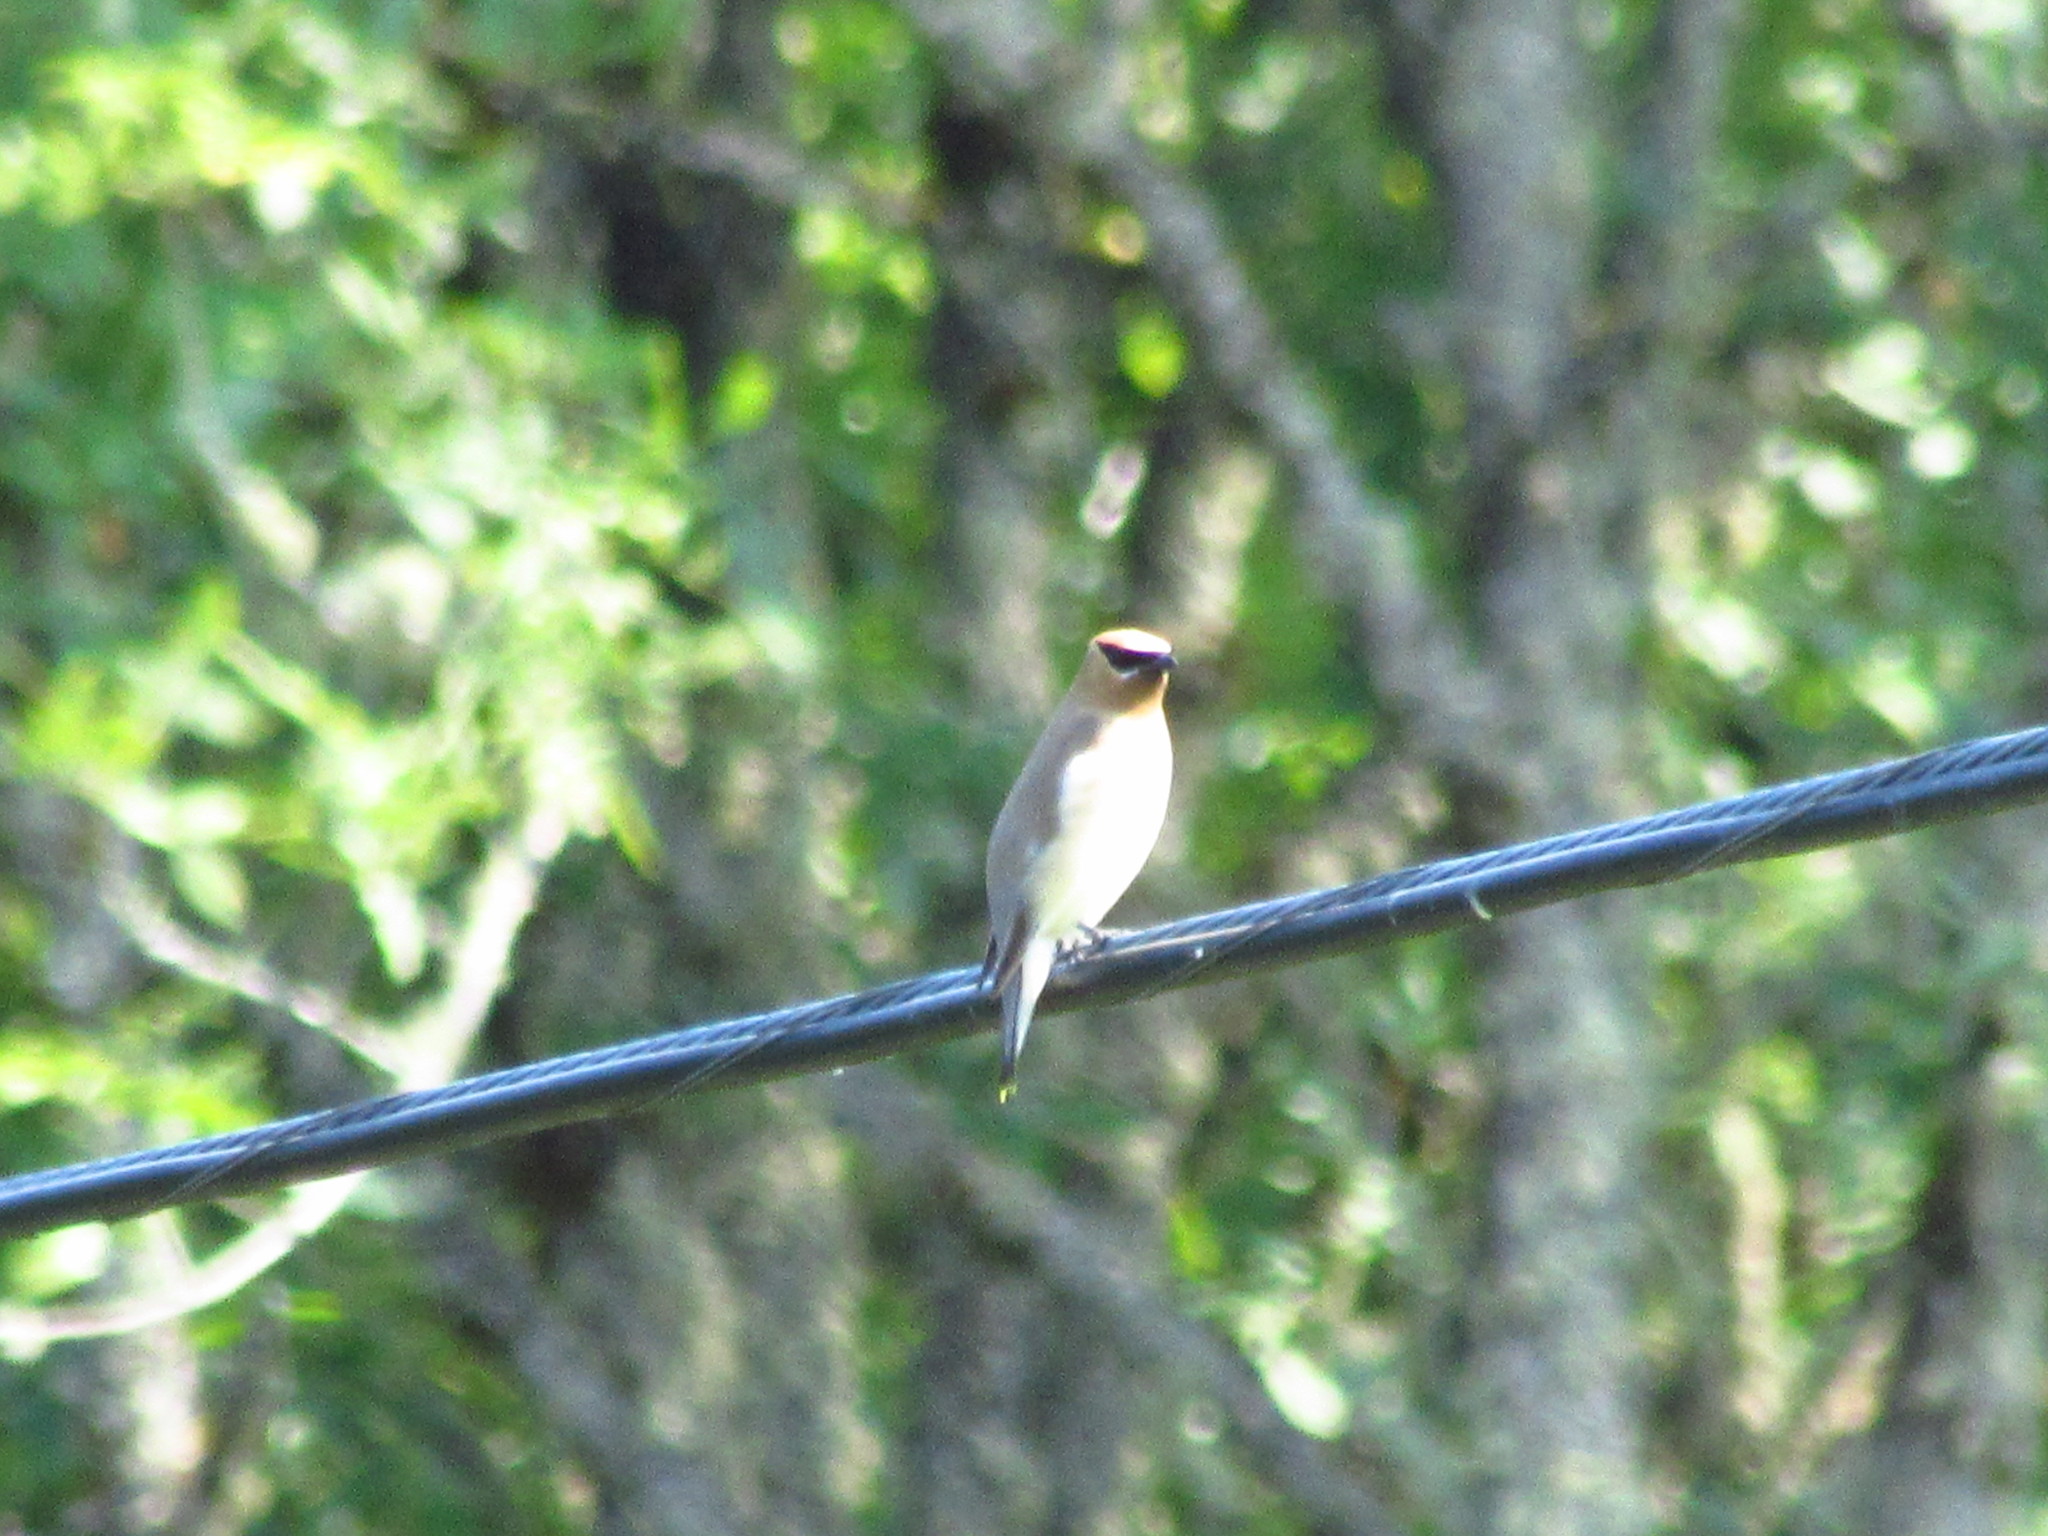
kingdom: Animalia
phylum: Chordata
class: Aves
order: Passeriformes
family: Bombycillidae
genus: Bombycilla
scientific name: Bombycilla cedrorum
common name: Cedar waxwing
